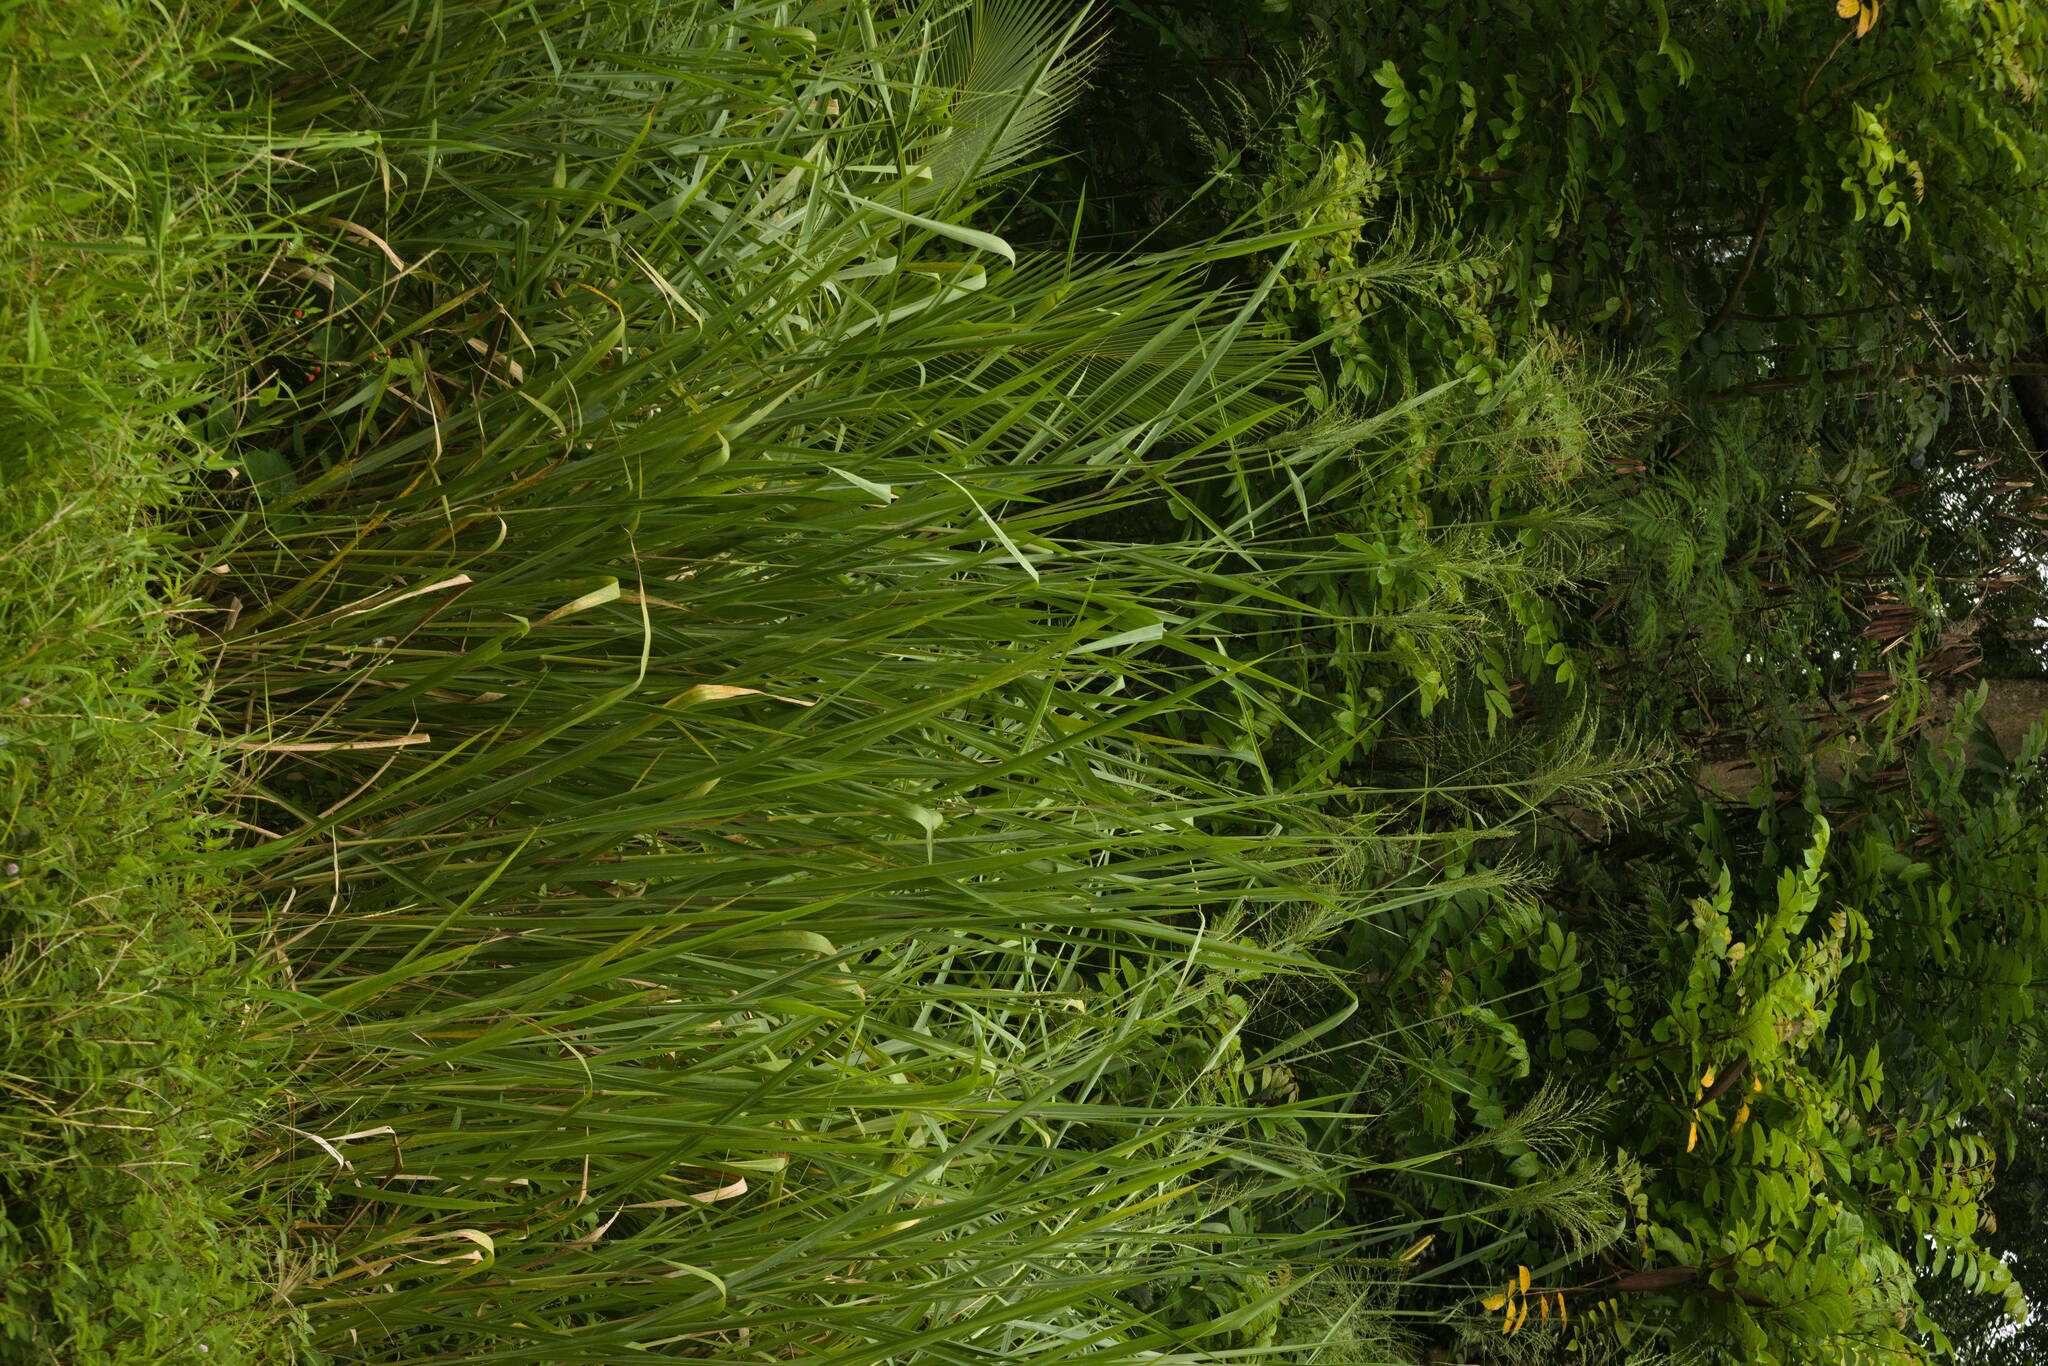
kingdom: Plantae
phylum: Tracheophyta
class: Liliopsida
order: Poales
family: Poaceae
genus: Megathyrsus
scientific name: Megathyrsus maximus
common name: Guineagrass
